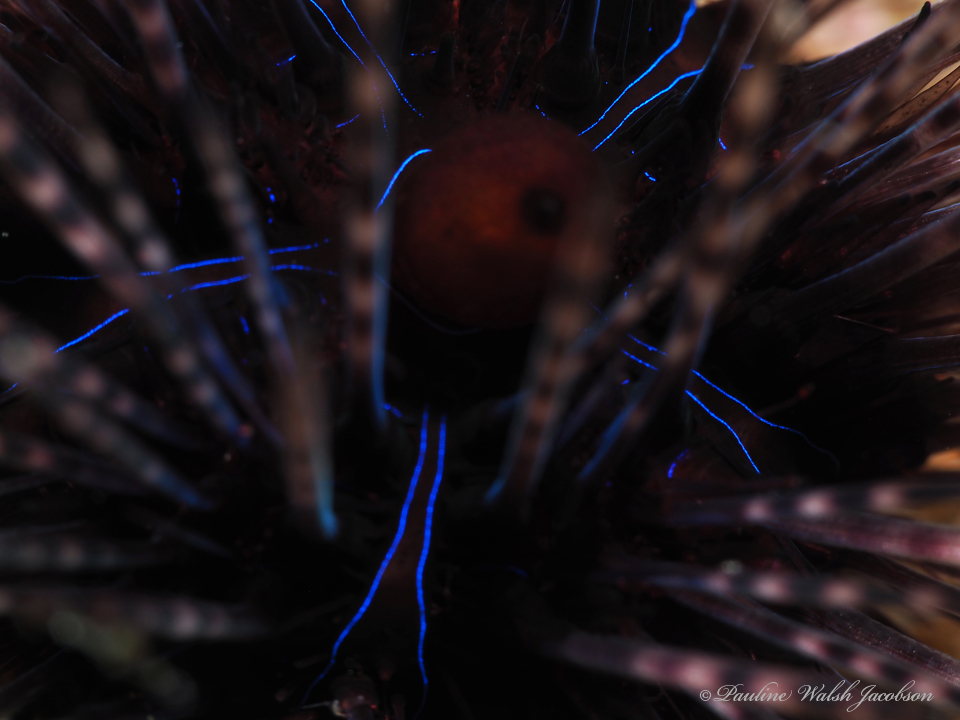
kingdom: Animalia
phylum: Echinodermata
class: Echinoidea
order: Diadematoida
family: Diadematidae
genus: Diadema
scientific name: Diadema antillarum
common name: Spiny urchin
